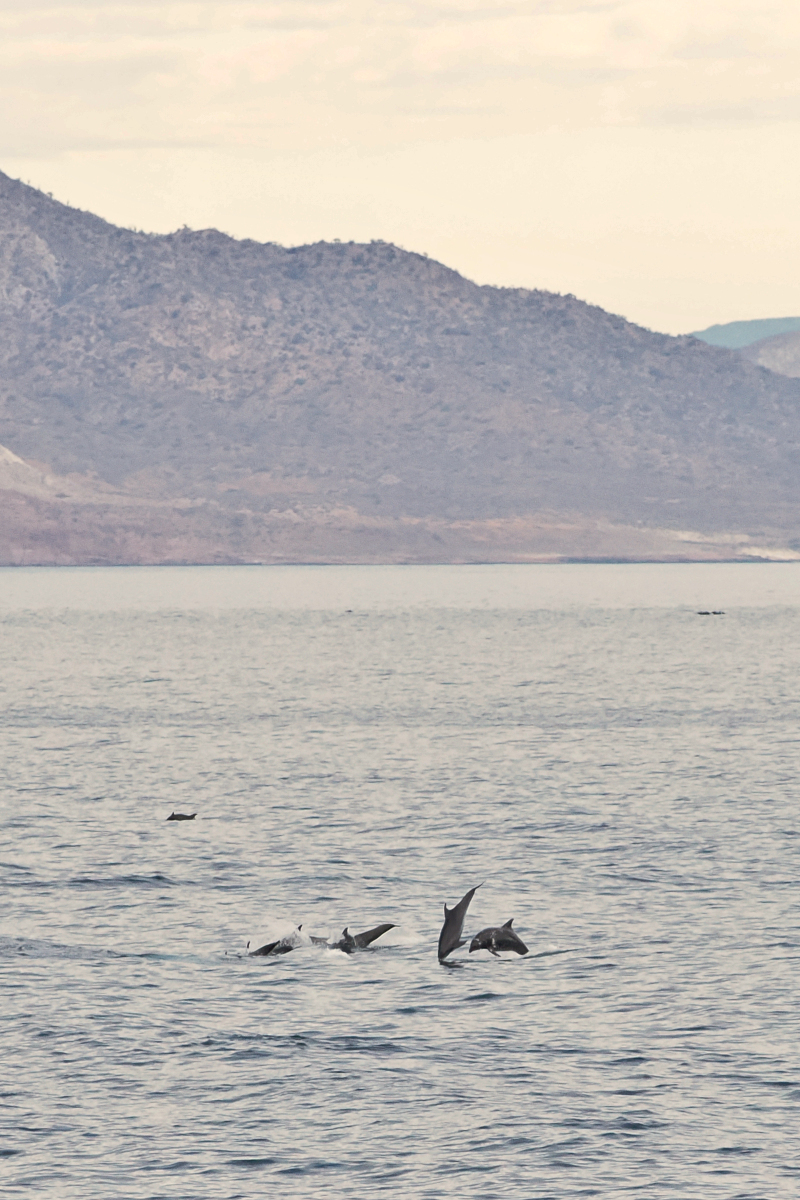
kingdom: Animalia
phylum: Chordata
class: Mammalia
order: Cetacea
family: Delphinidae
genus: Tursiops
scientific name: Tursiops truncatus
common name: Bottlenose dolphin
